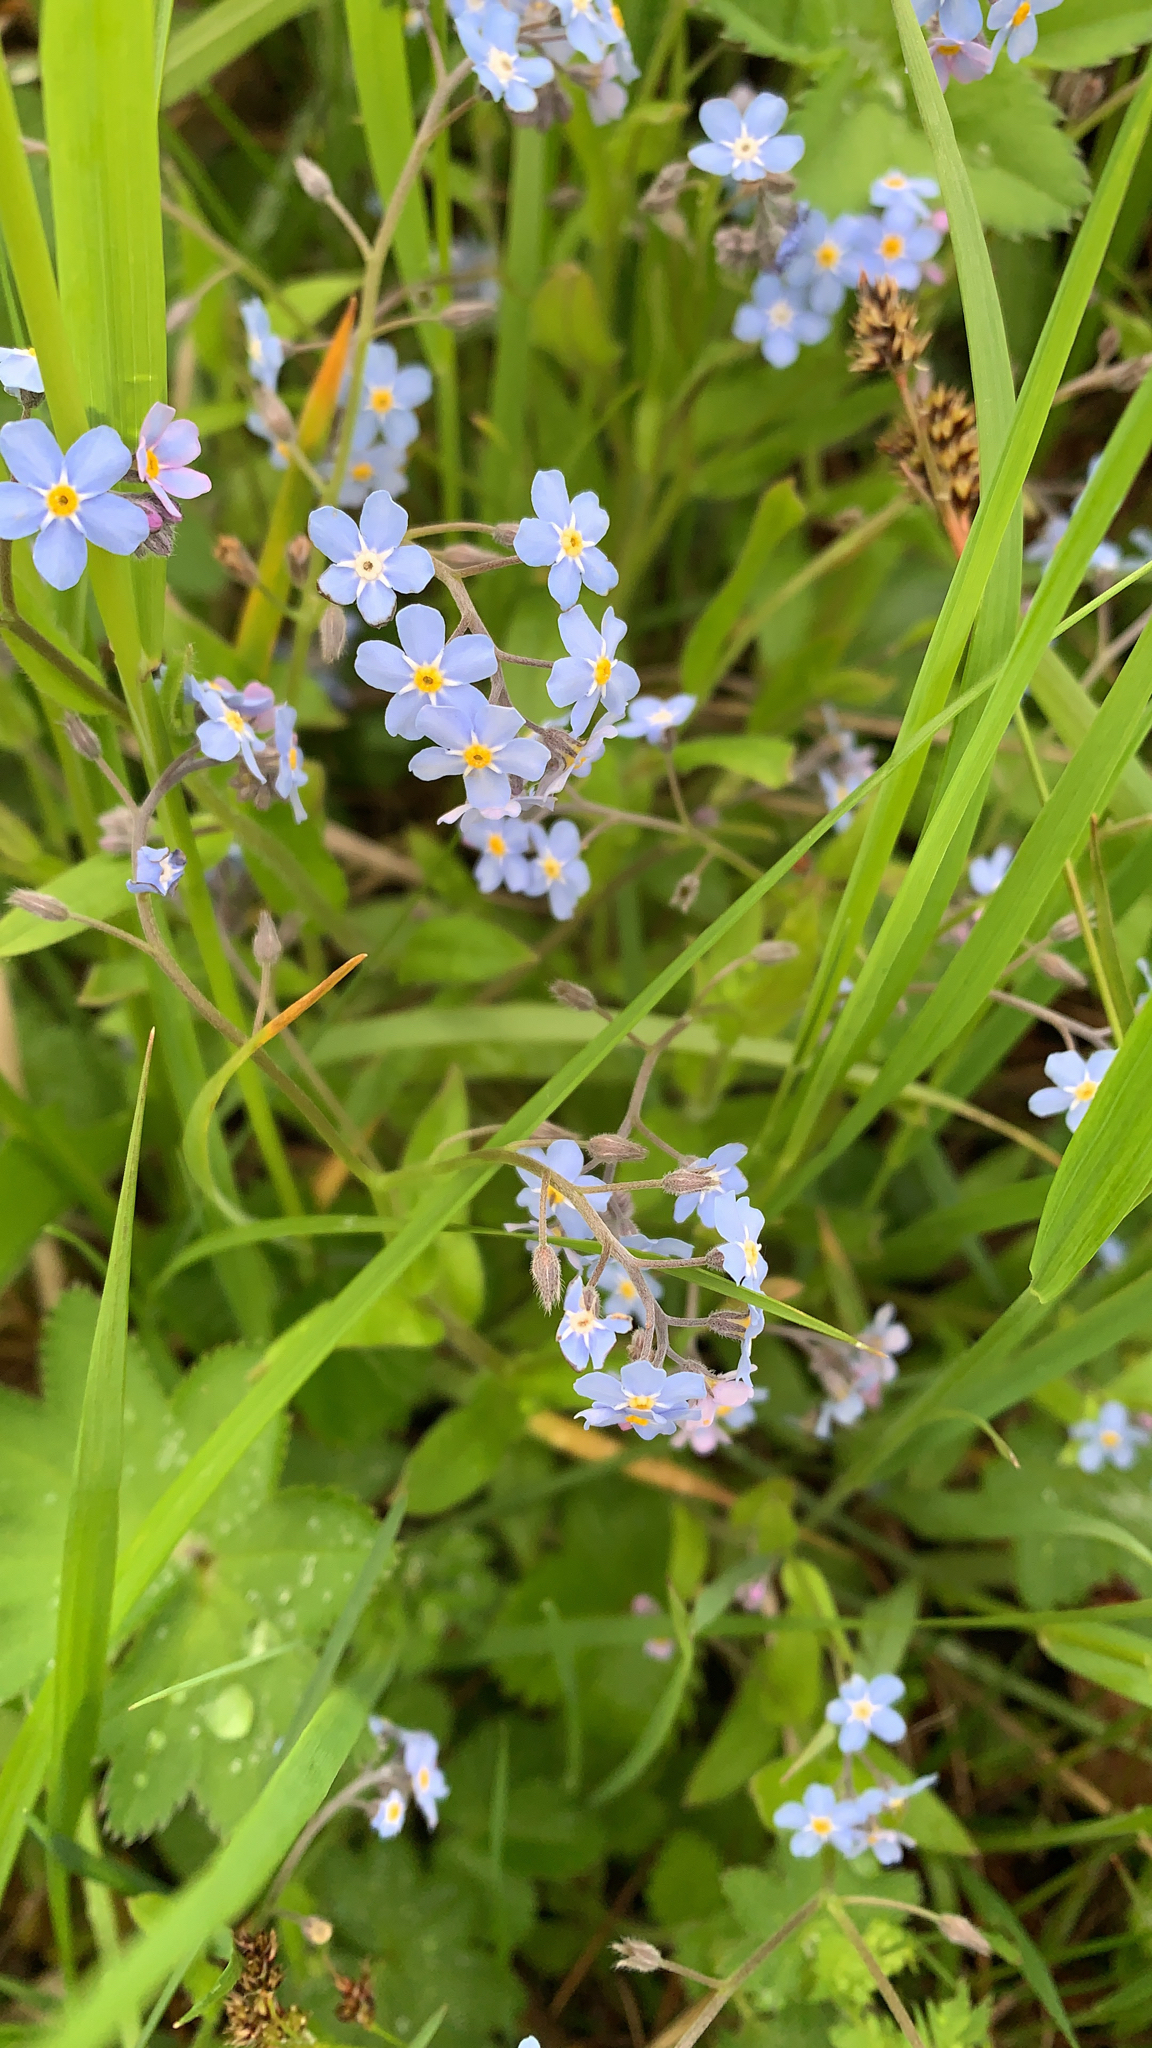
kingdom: Plantae
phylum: Tracheophyta
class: Magnoliopsida
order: Boraginales
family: Boraginaceae
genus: Myosotis
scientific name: Myosotis sylvatica
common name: Wood forget-me-not
